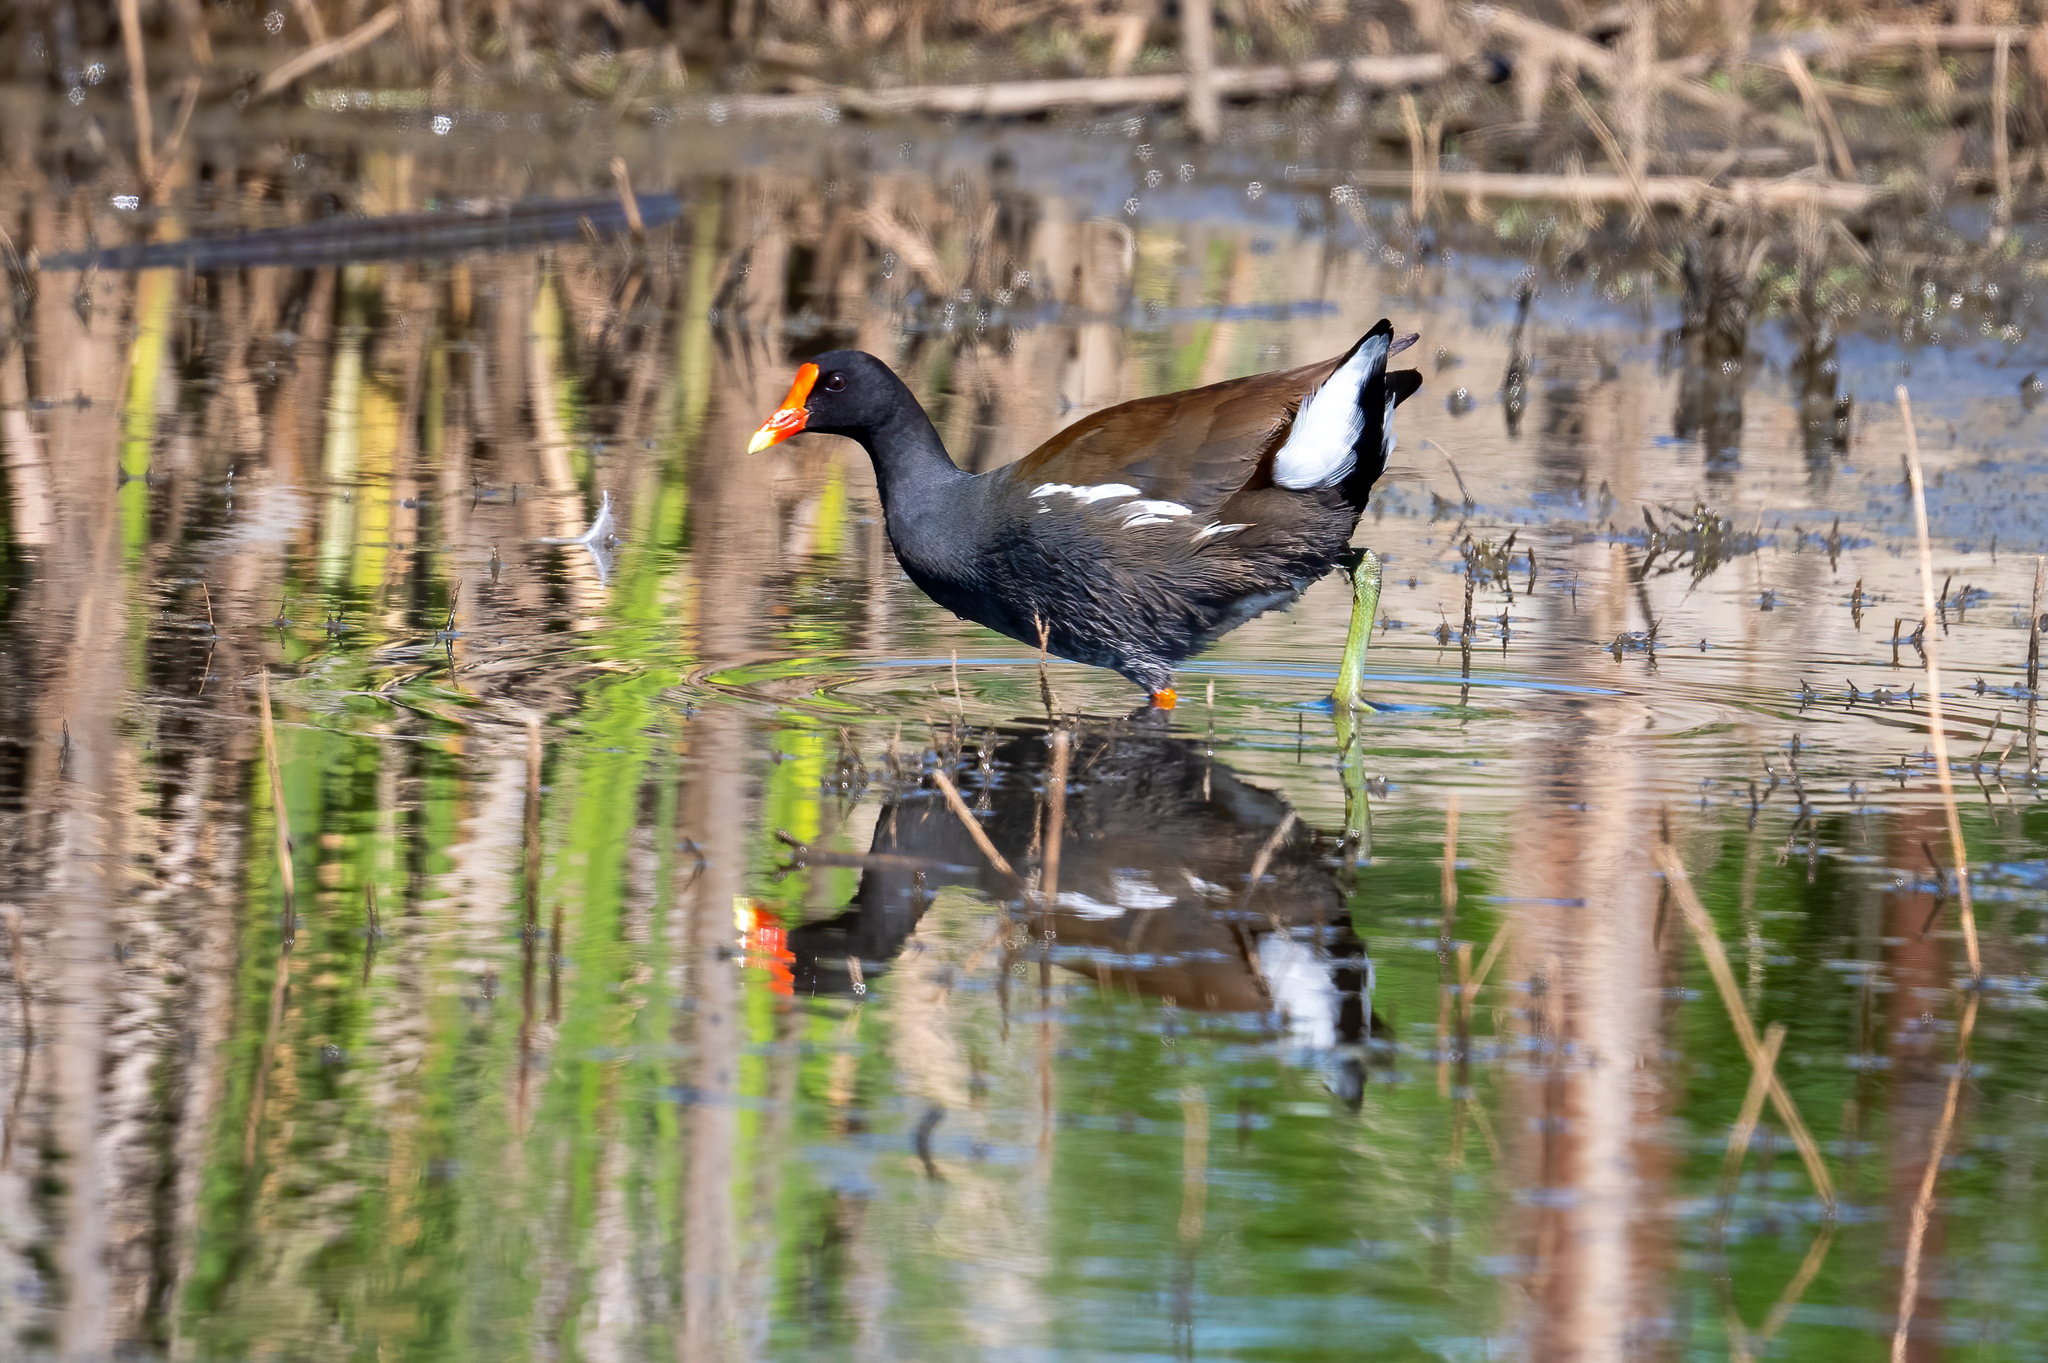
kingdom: Animalia
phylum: Chordata
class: Aves
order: Gruiformes
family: Rallidae
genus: Gallinula
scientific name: Gallinula chloropus
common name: Common moorhen
